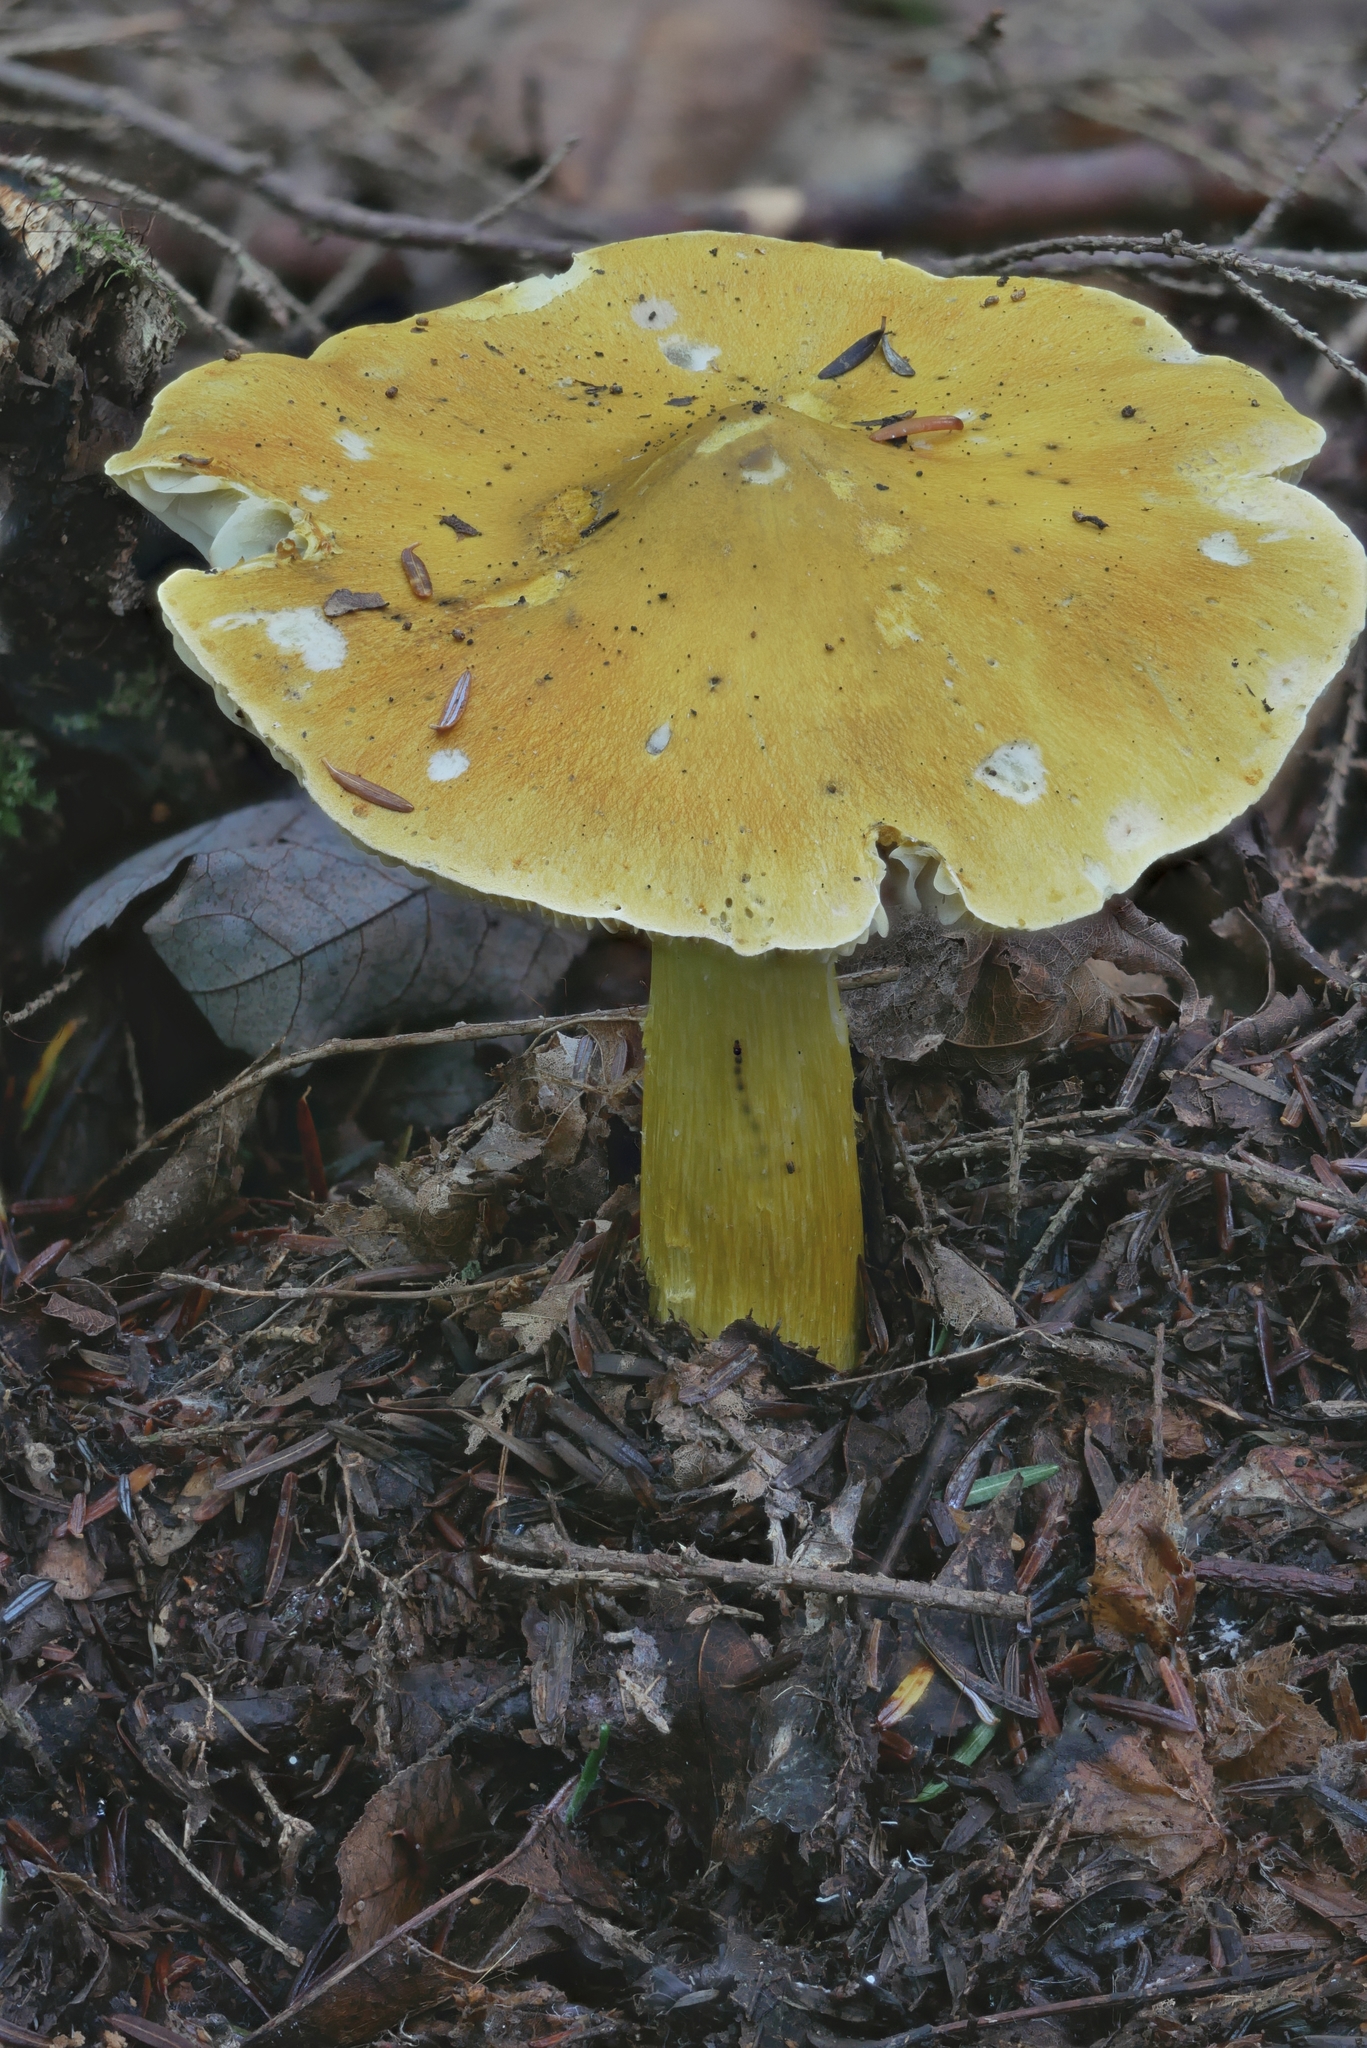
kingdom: Fungi
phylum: Basidiomycota
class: Agaricomycetes
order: Agaricales
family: Tricholomataceae
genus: Tricholoma
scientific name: Tricholoma subluteum
